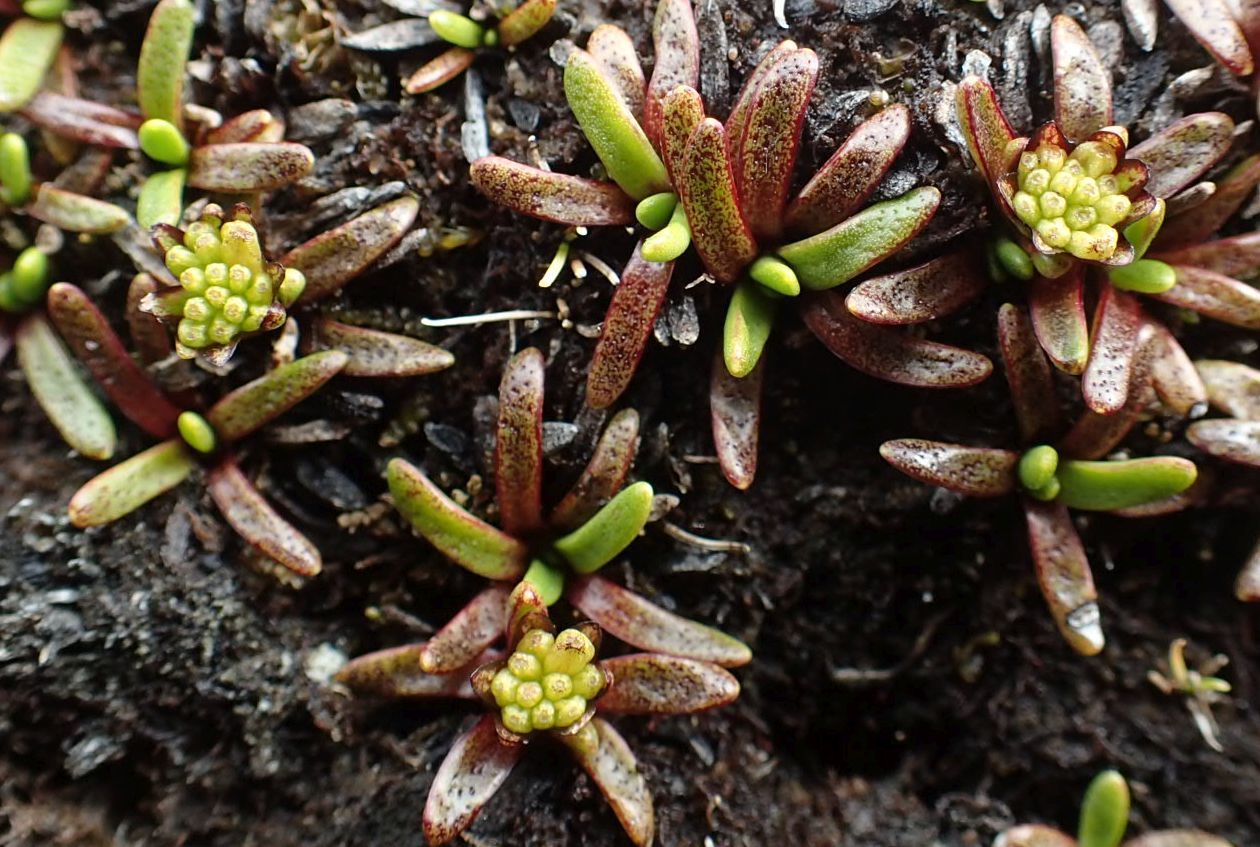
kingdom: Plantae
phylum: Tracheophyta
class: Magnoliopsida
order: Asterales
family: Asteraceae
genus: Abrotanella
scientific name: Abrotanella caespitosa
